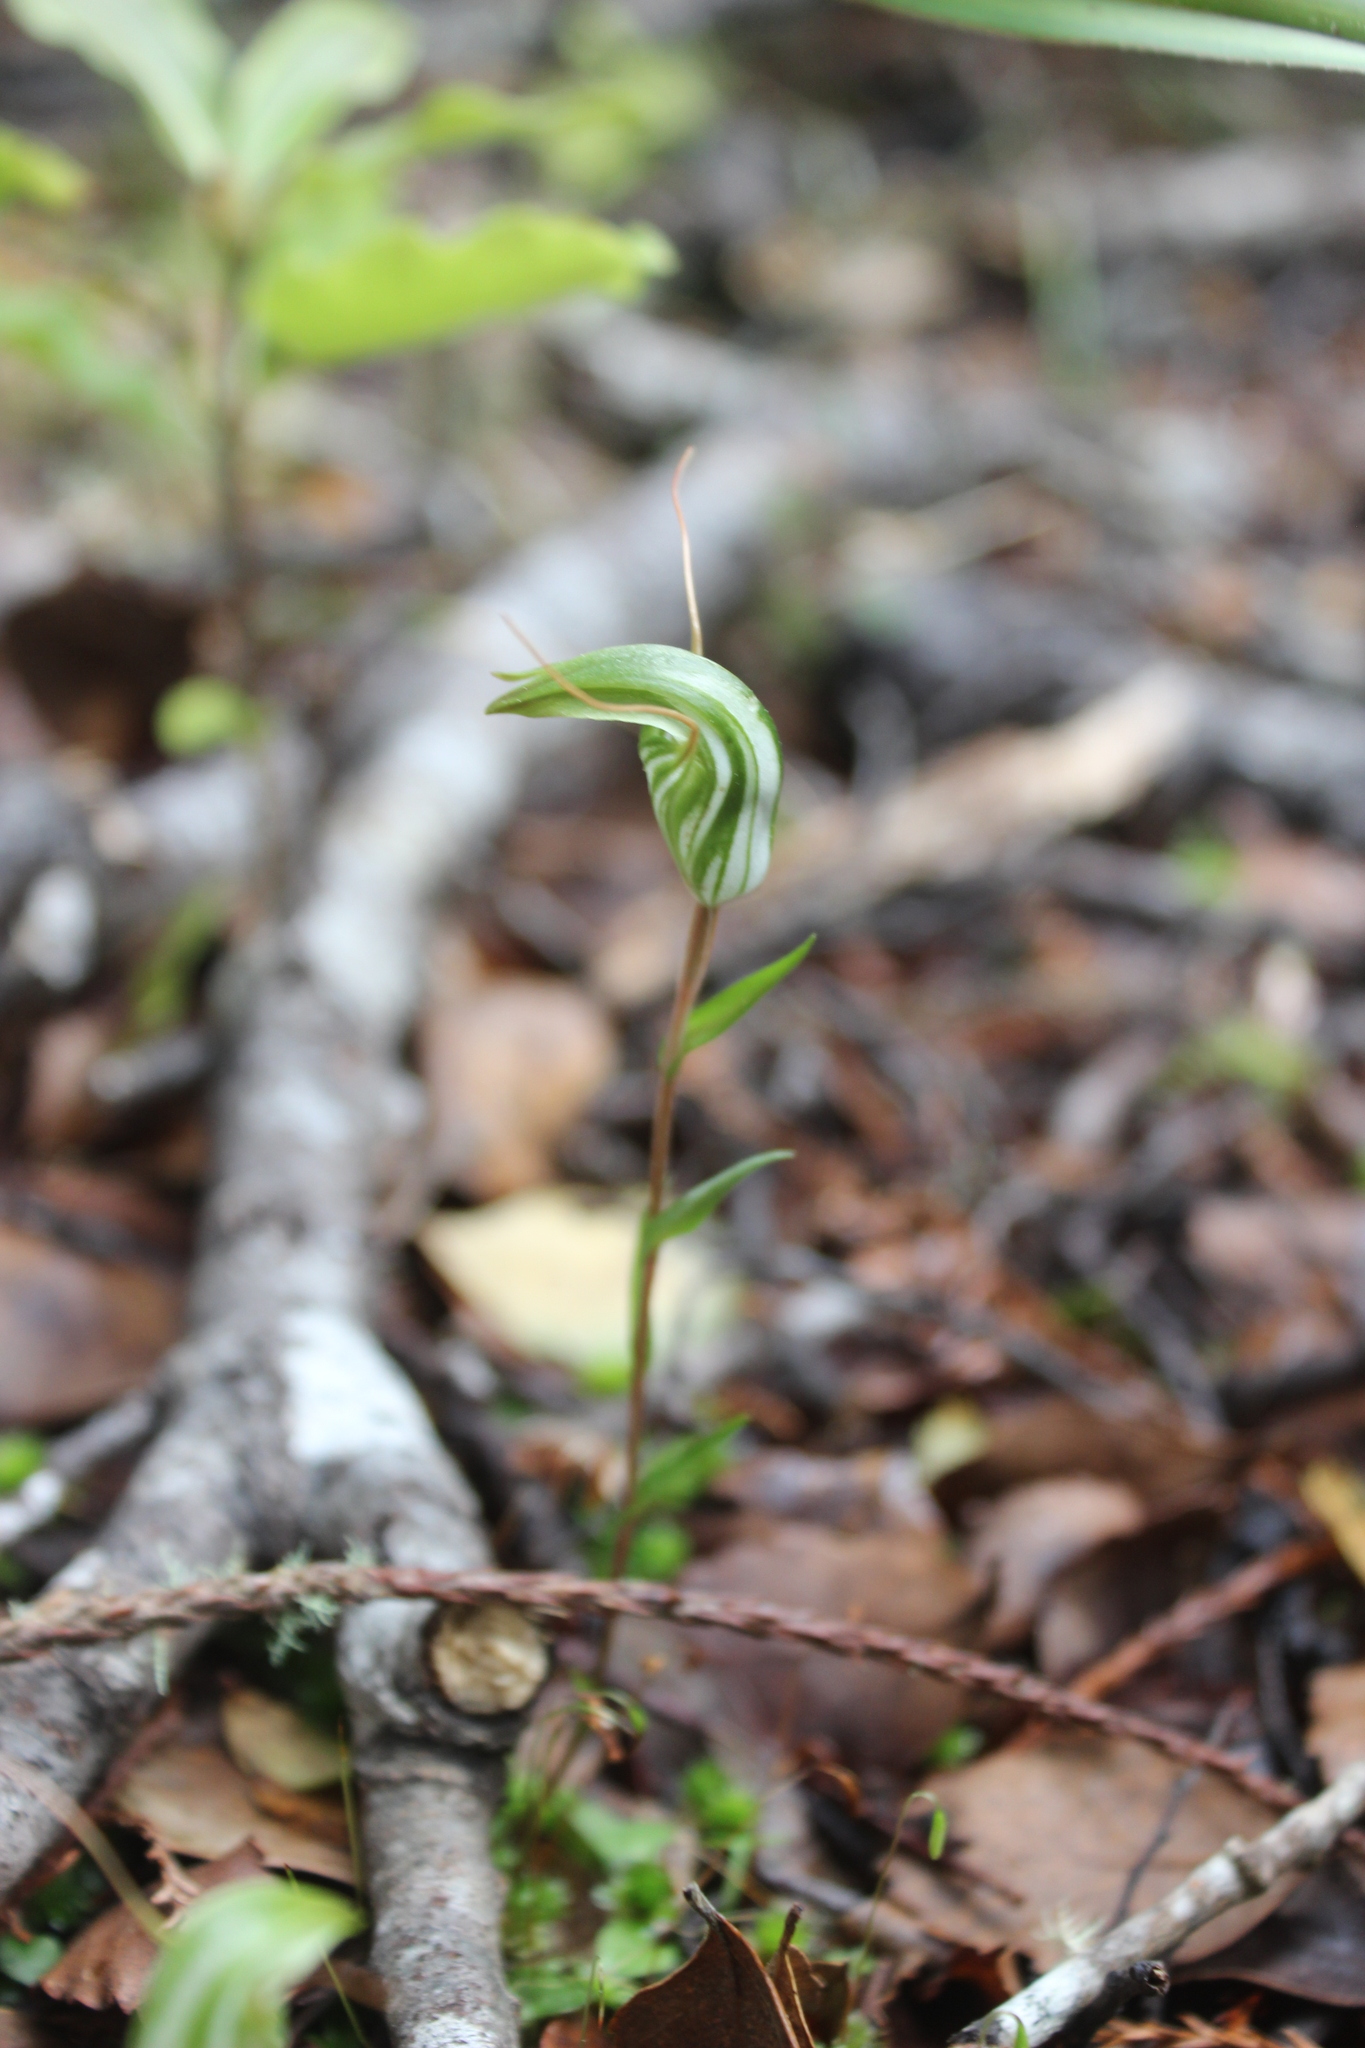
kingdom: Plantae
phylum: Tracheophyta
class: Liliopsida
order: Asparagales
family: Orchidaceae
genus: Pterostylis
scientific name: Pterostylis alobula
